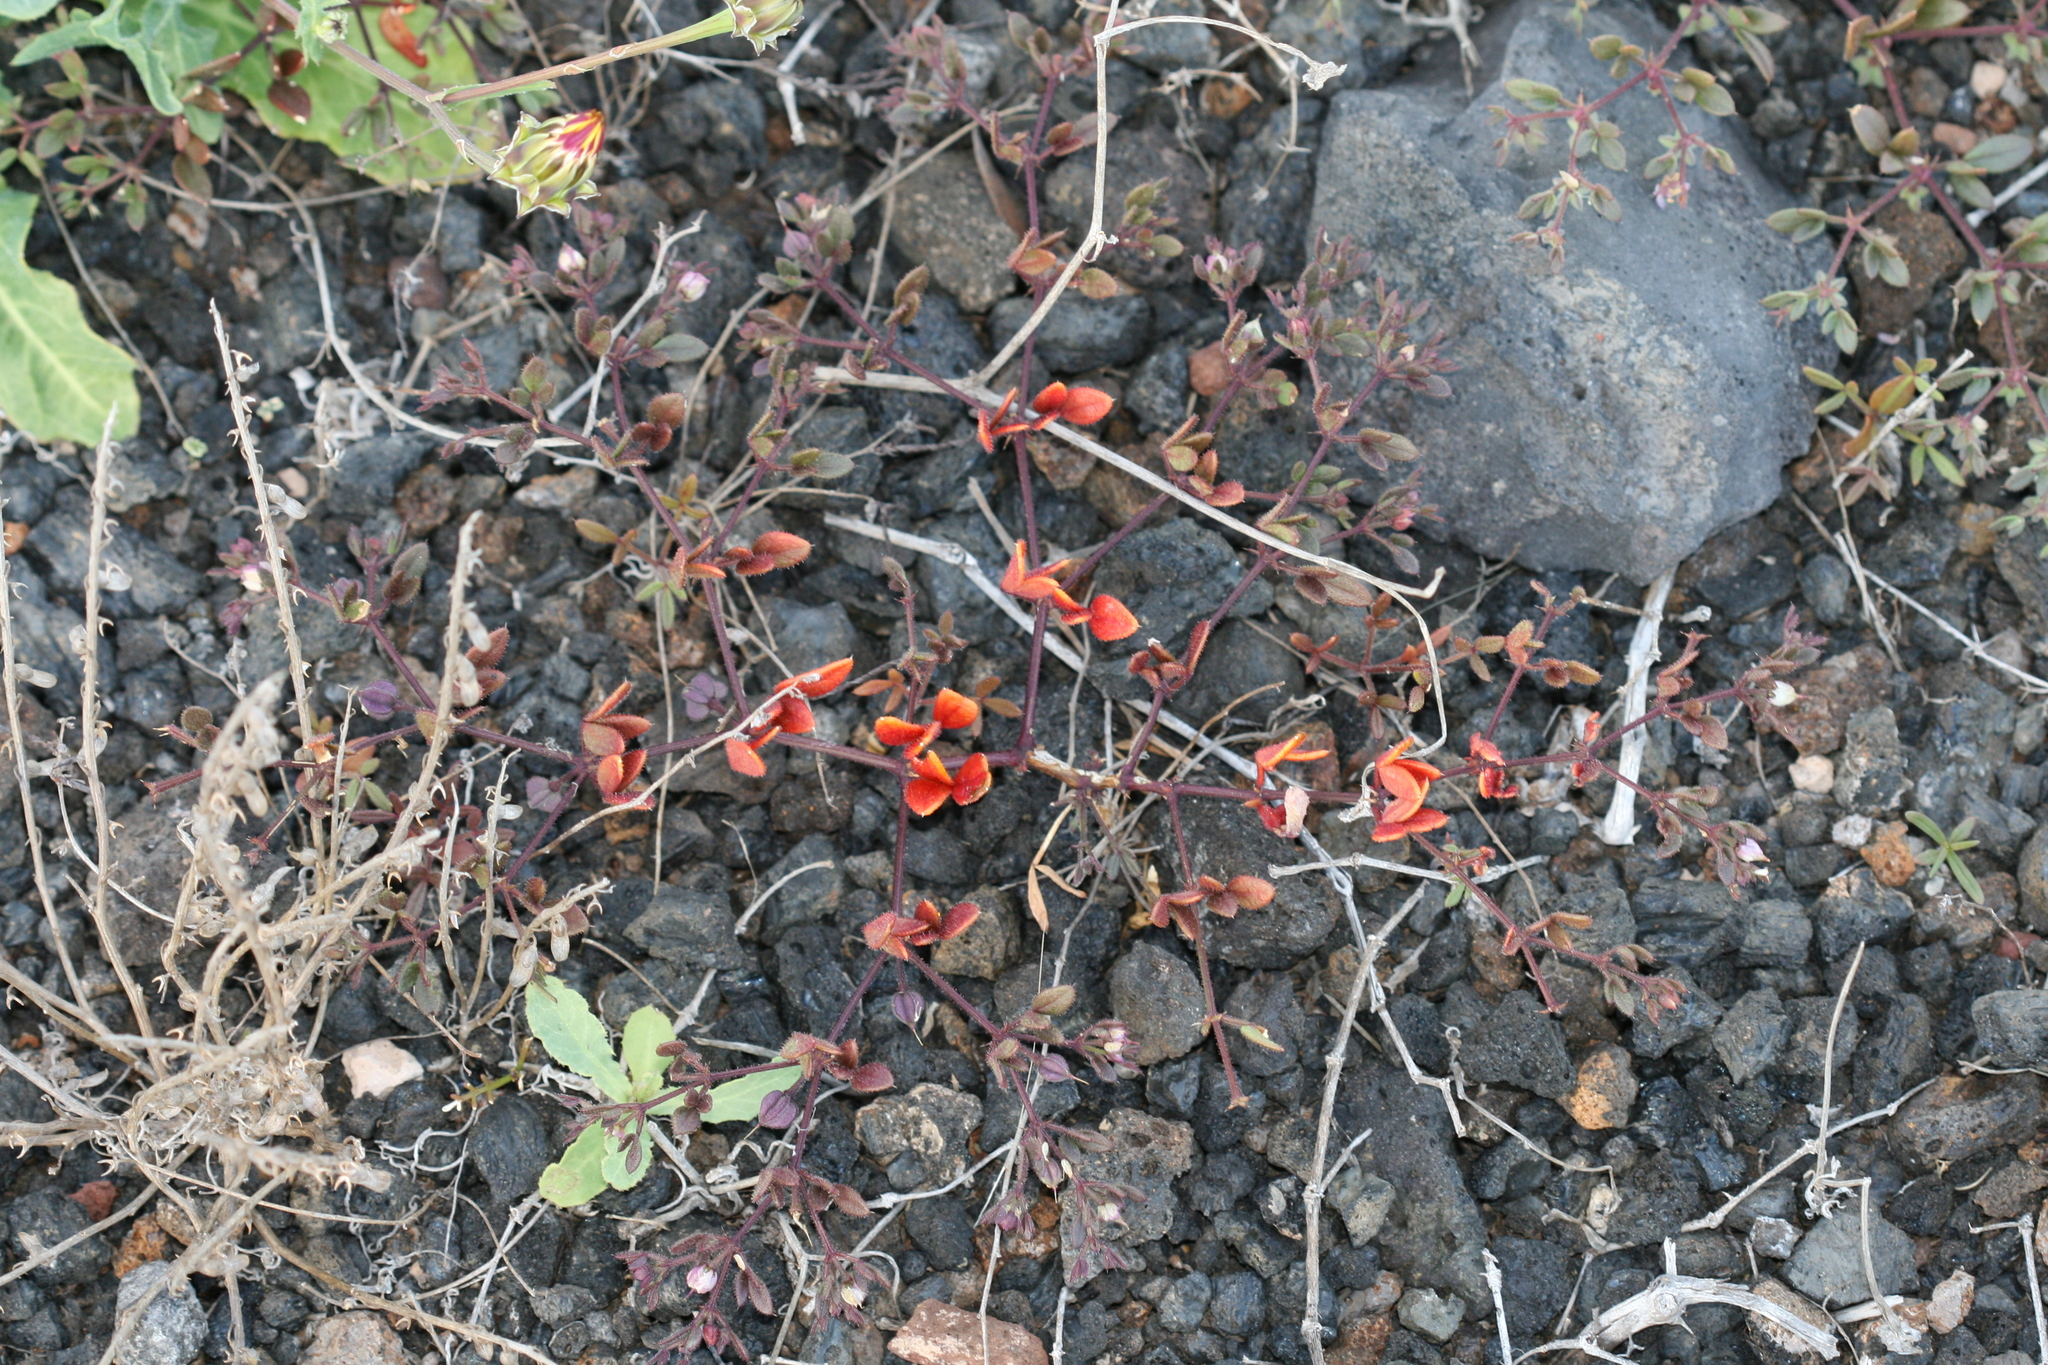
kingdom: Plantae
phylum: Tracheophyta
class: Magnoliopsida
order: Caryophyllales
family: Caryophyllaceae
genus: Polycarpaea
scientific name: Polycarpaea divaricata
